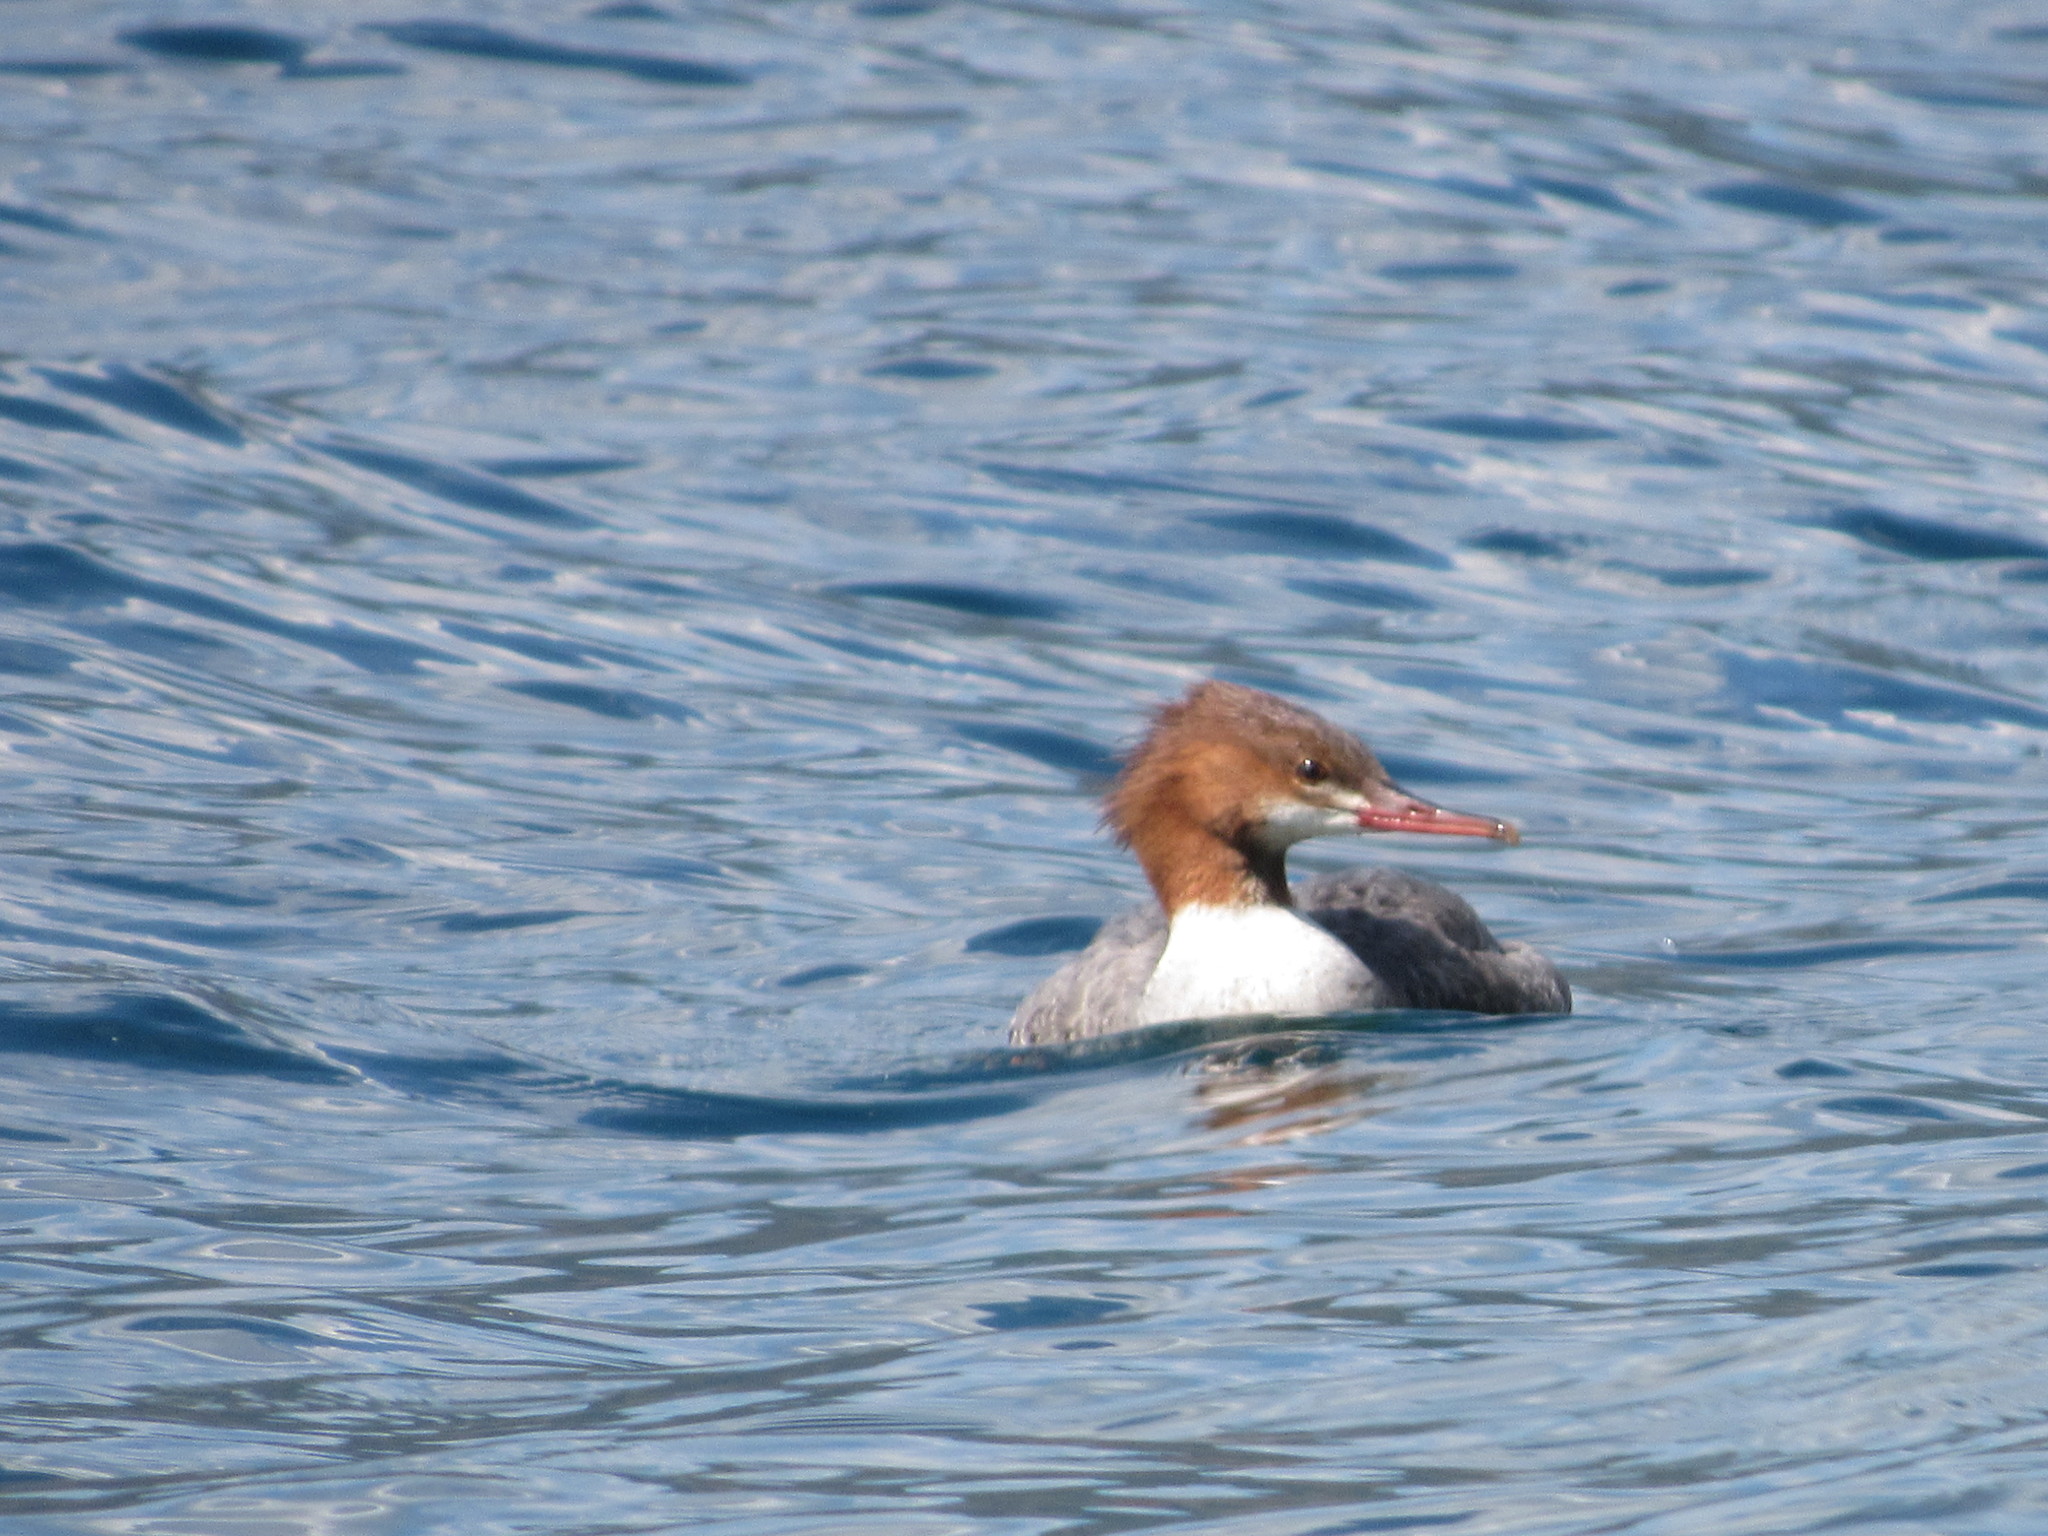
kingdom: Animalia
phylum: Chordata
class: Aves
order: Anseriformes
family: Anatidae
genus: Mergus
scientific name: Mergus merganser
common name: Common merganser
